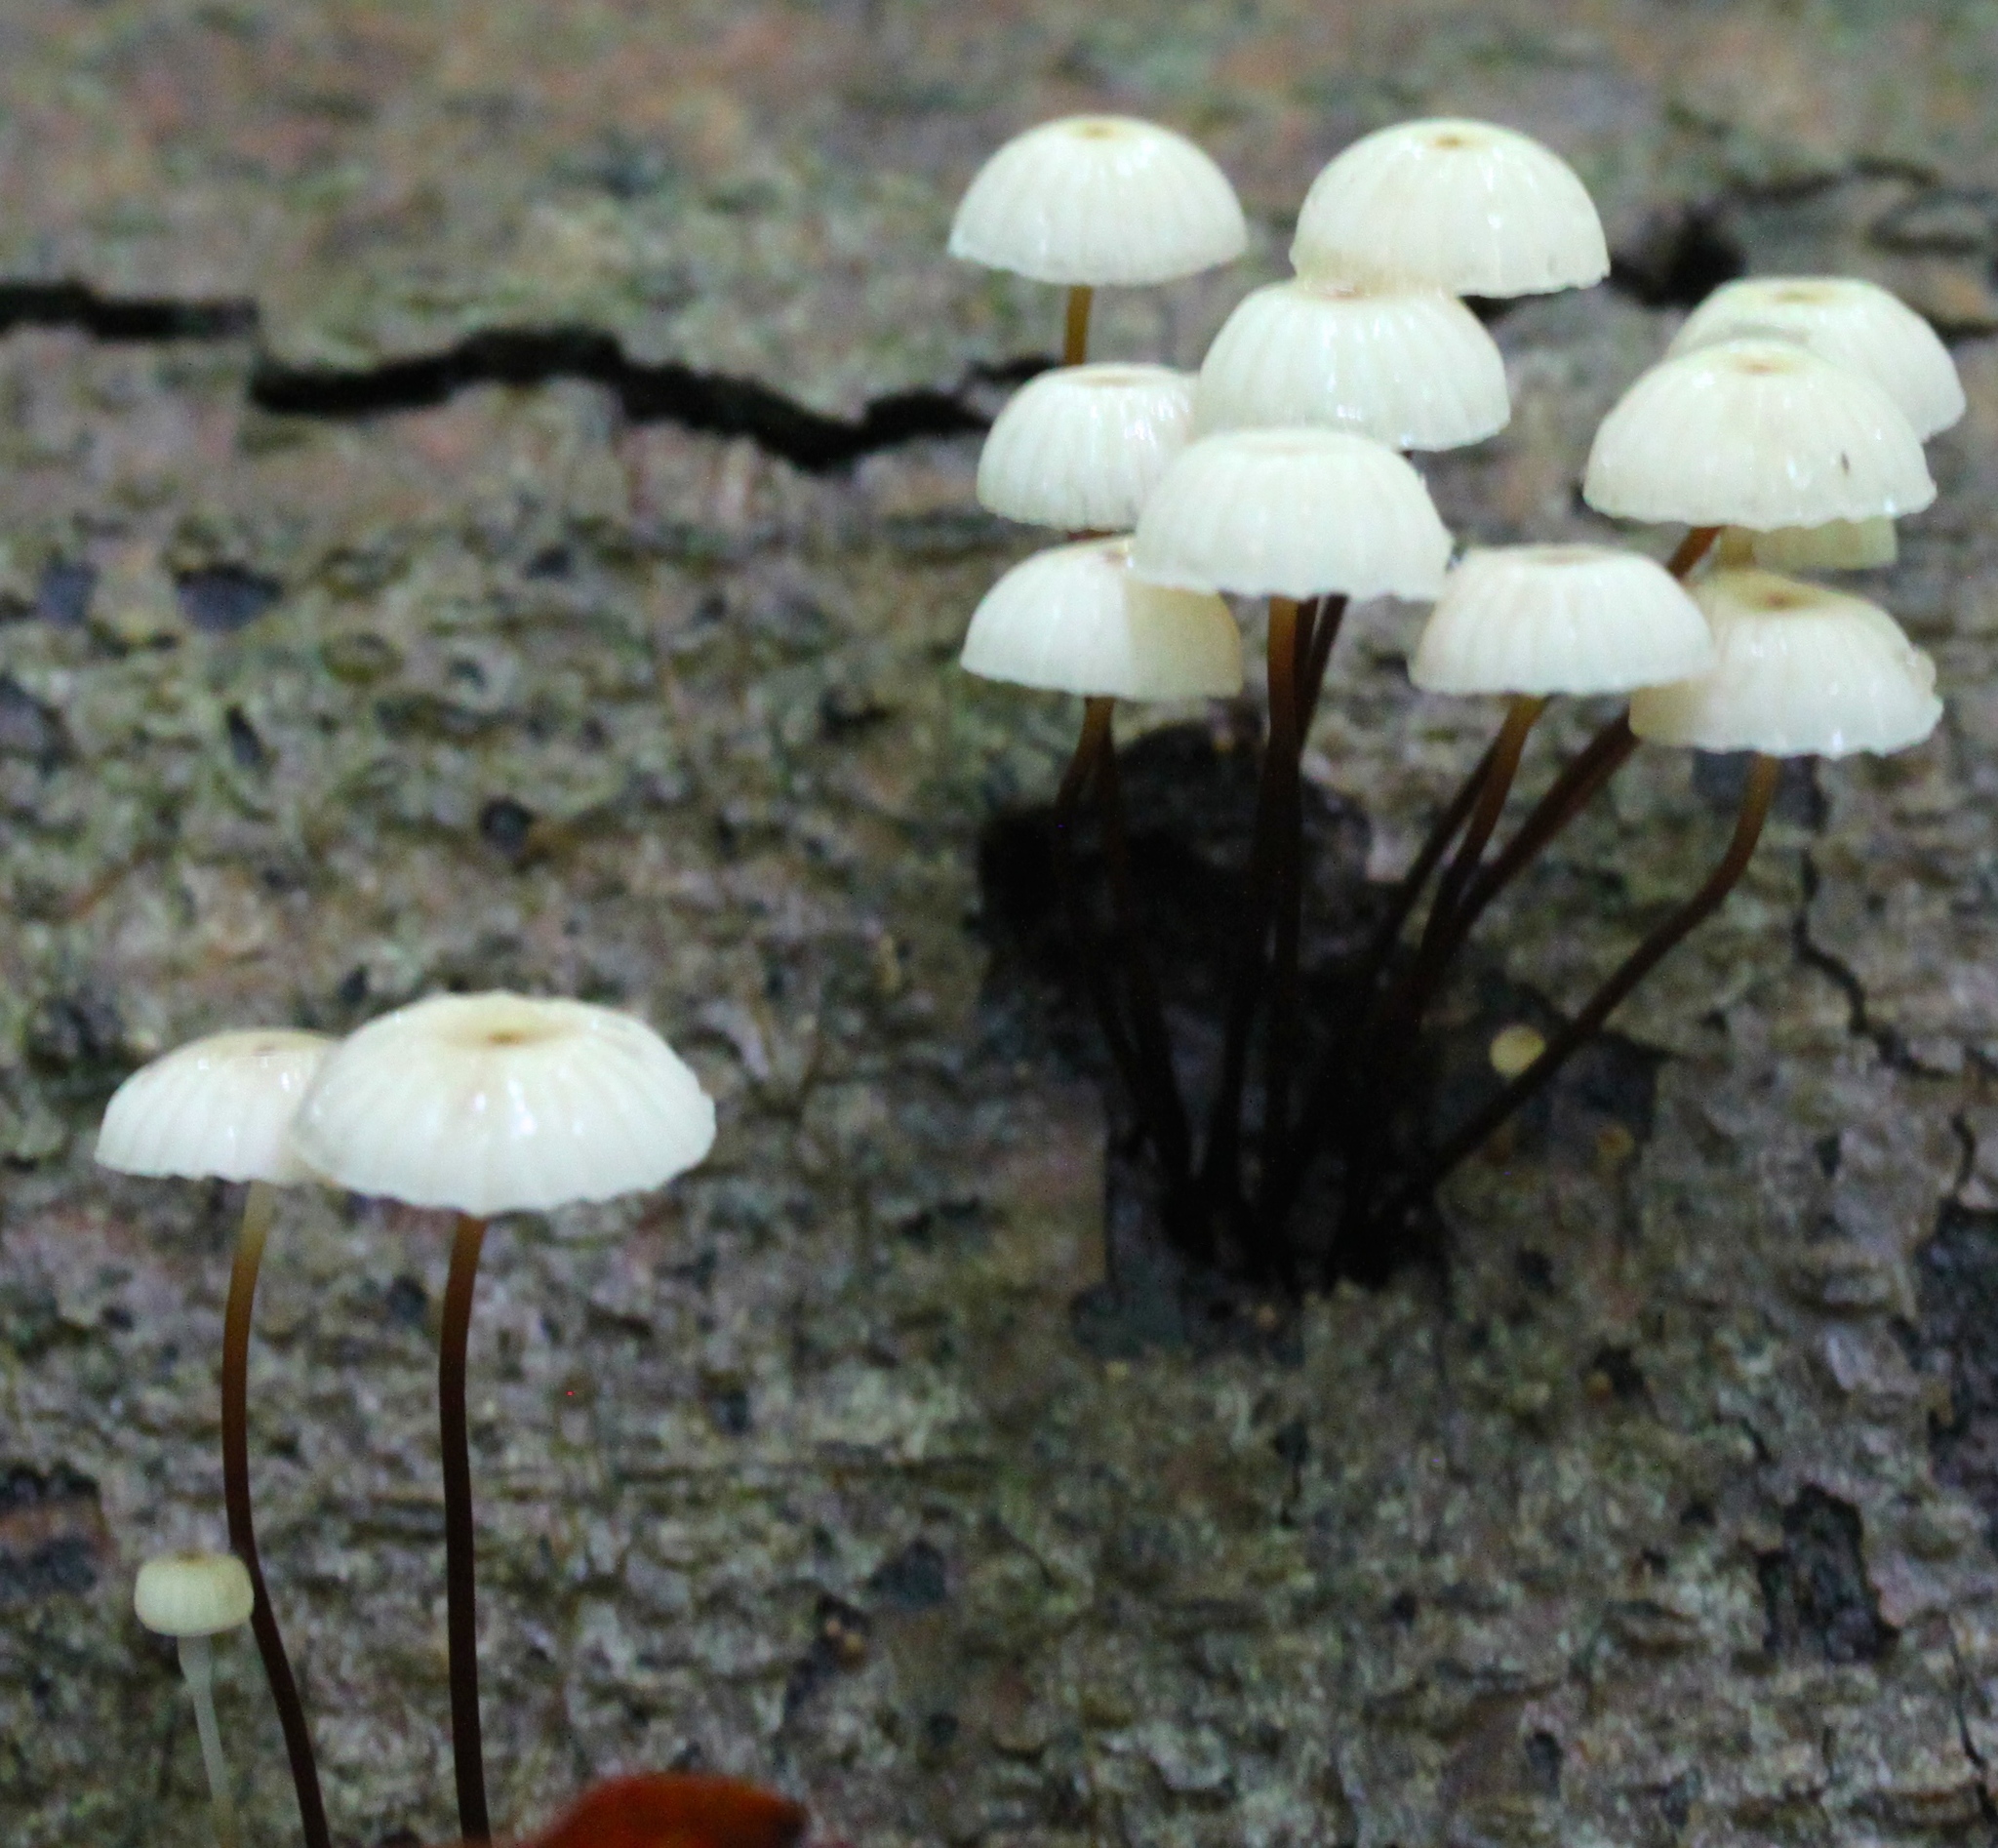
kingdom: Fungi
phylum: Basidiomycota
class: Agaricomycetes
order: Agaricales
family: Marasmiaceae
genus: Marasmius
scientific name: Marasmius rotula
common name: Collared parachute
